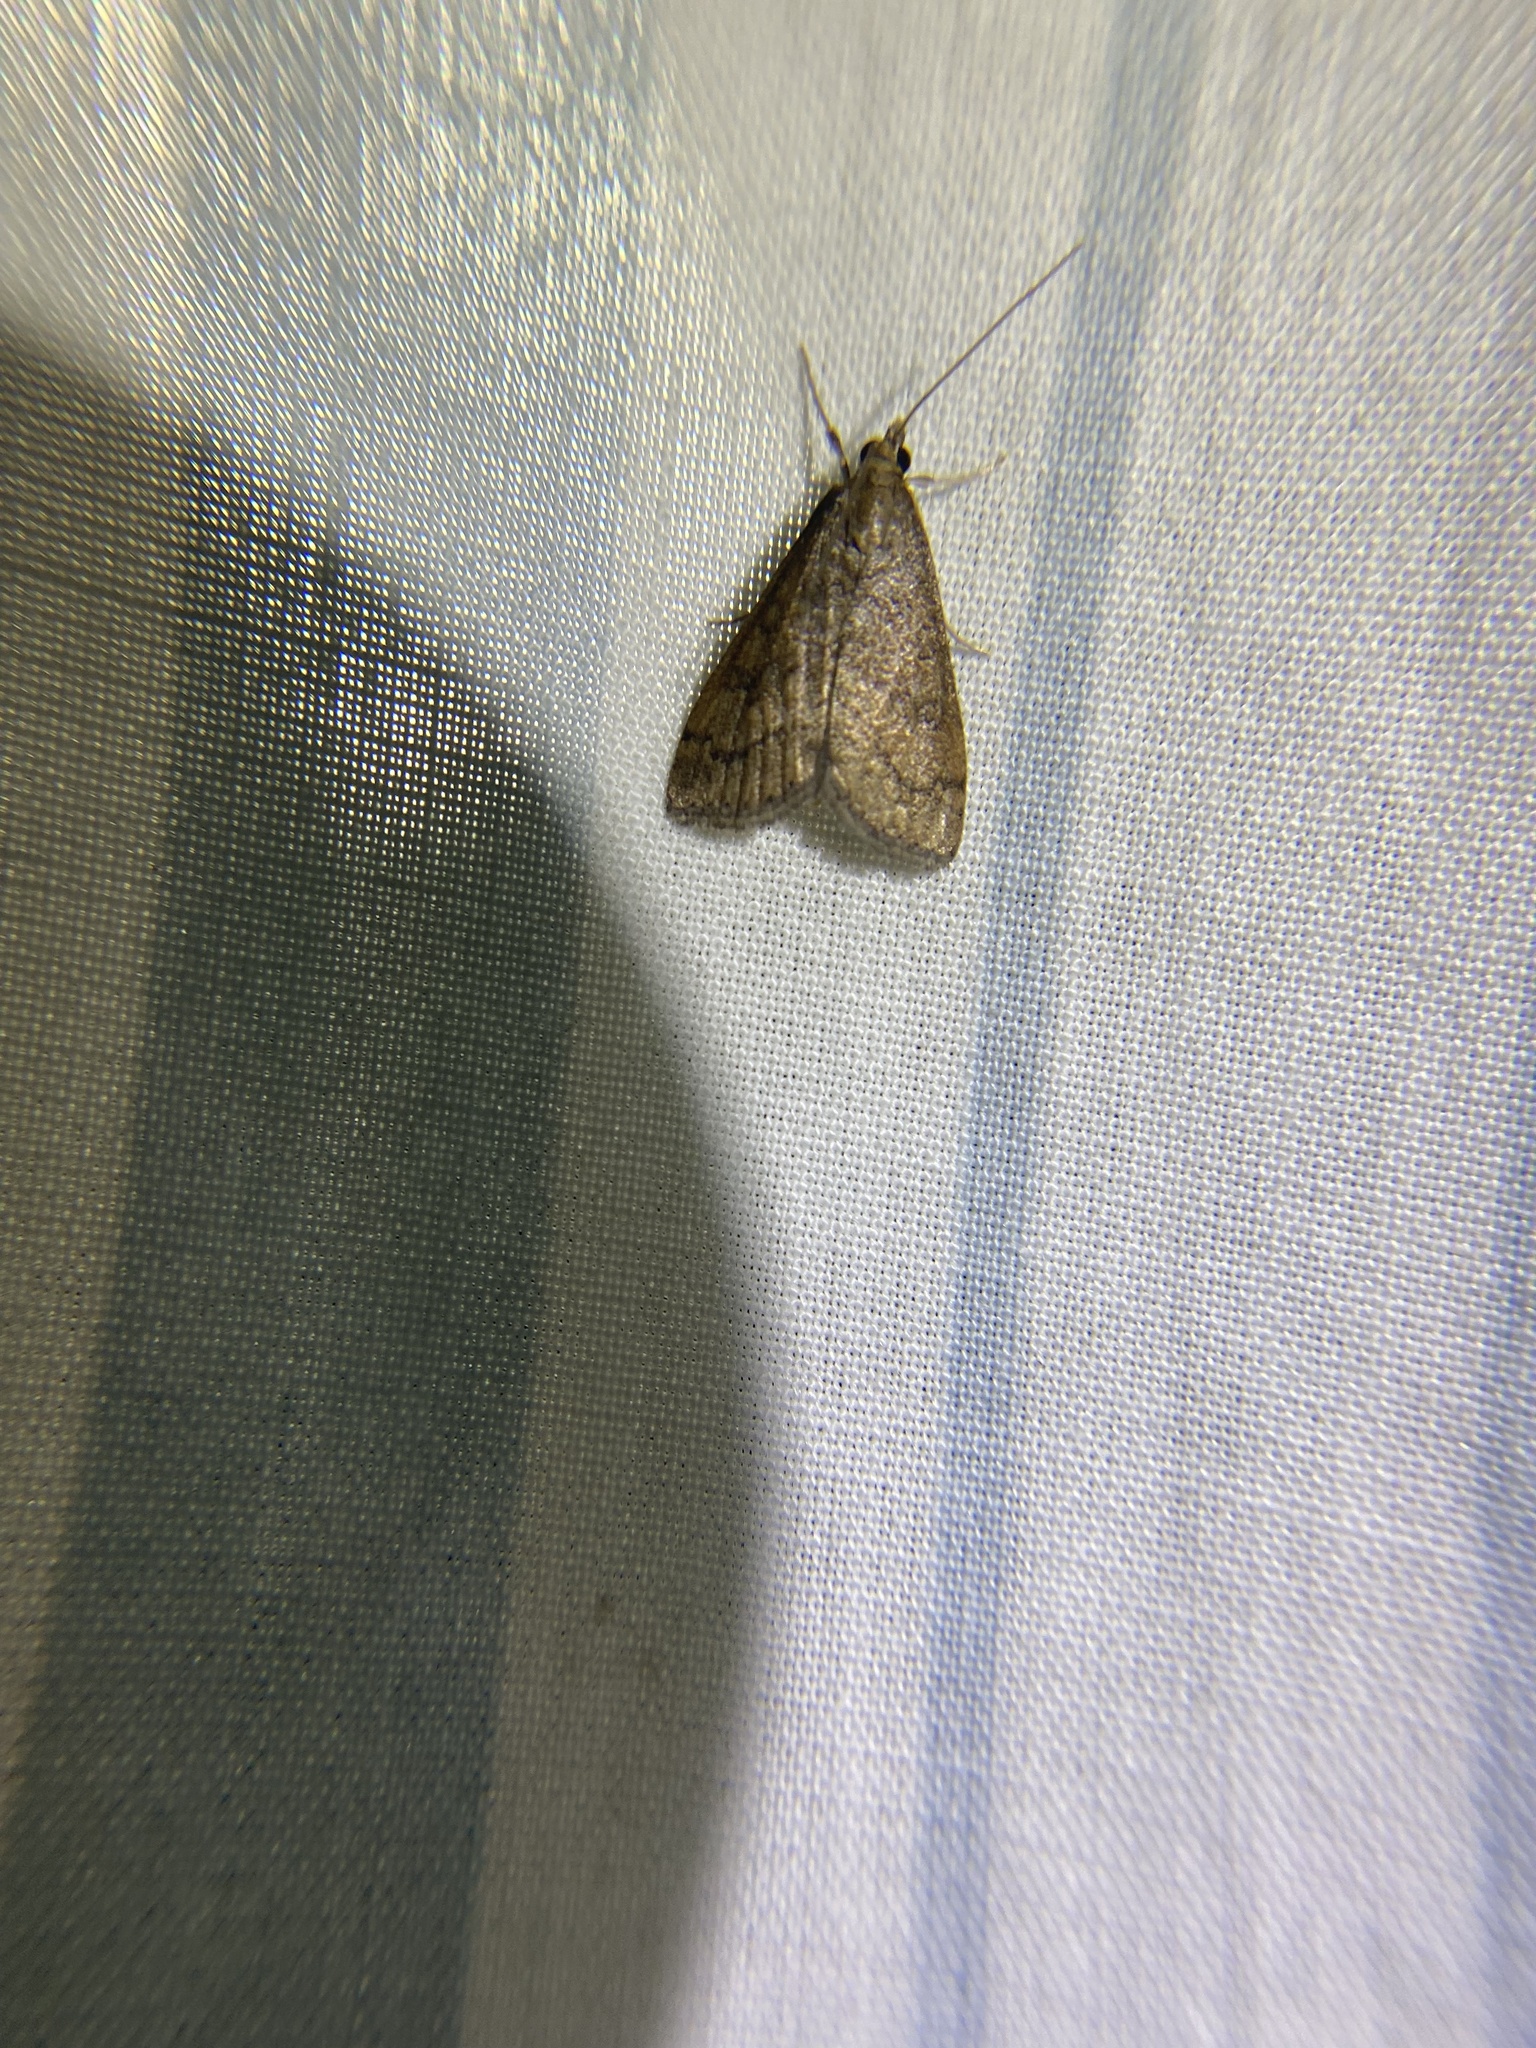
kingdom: Animalia
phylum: Arthropoda
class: Insecta
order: Lepidoptera
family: Crambidae
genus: Udea
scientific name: Udea rubigalis
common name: Celery leaftier moth
